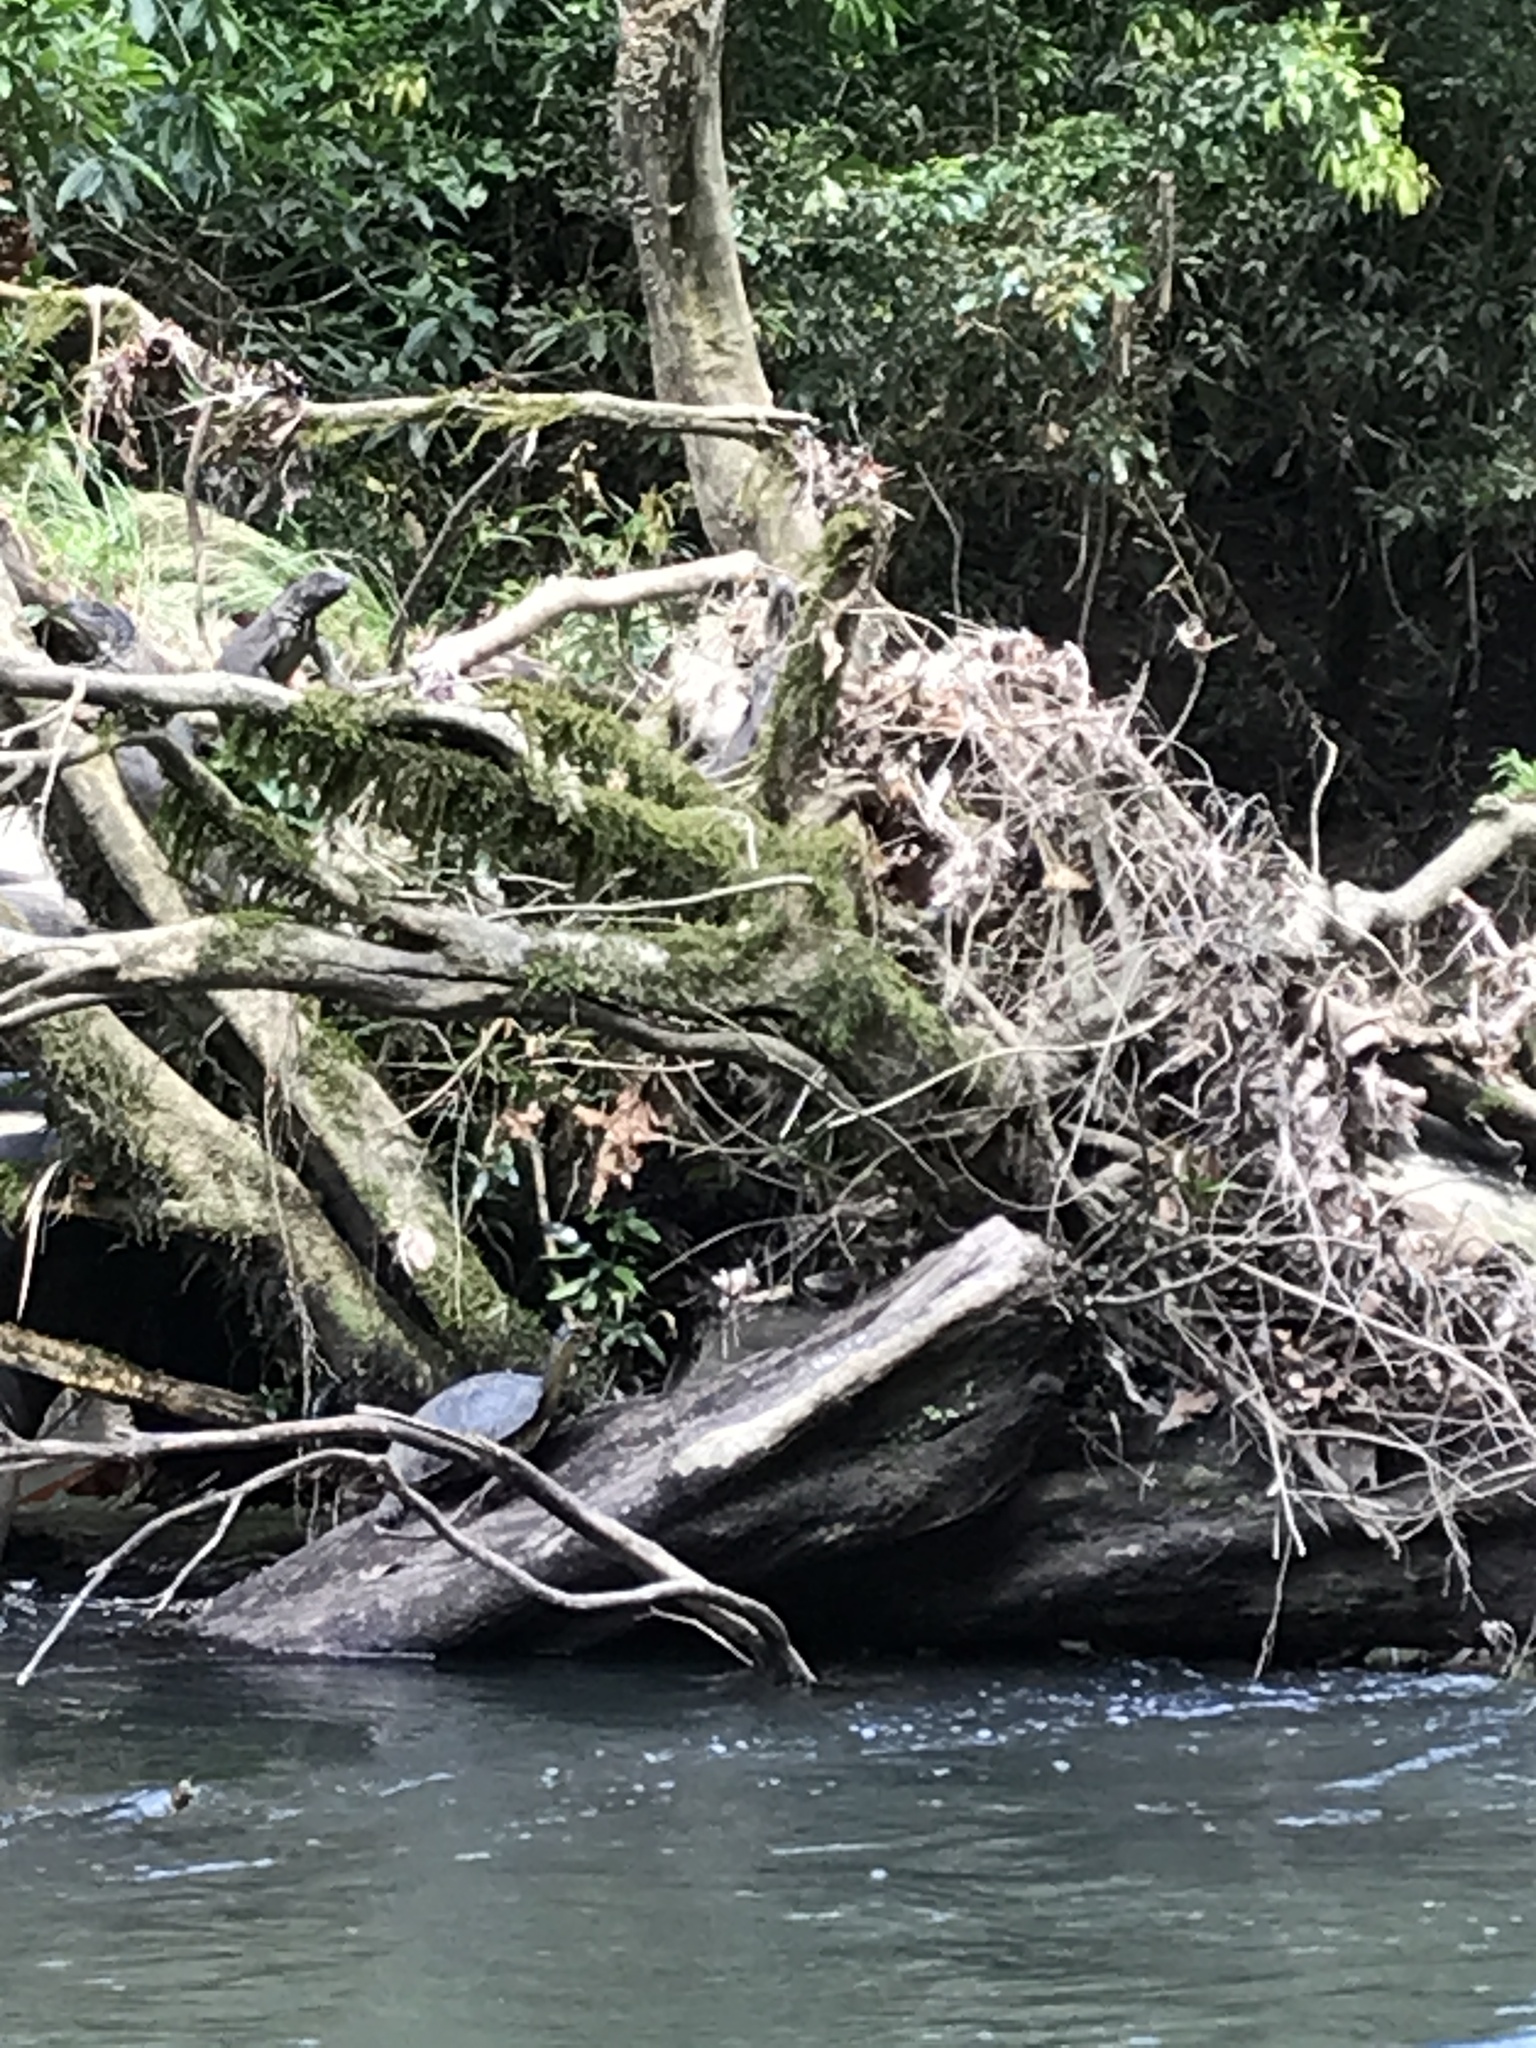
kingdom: Animalia
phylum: Chordata
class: Squamata
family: Iguanidae
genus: Iguana
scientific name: Iguana iguana
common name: Green iguana
